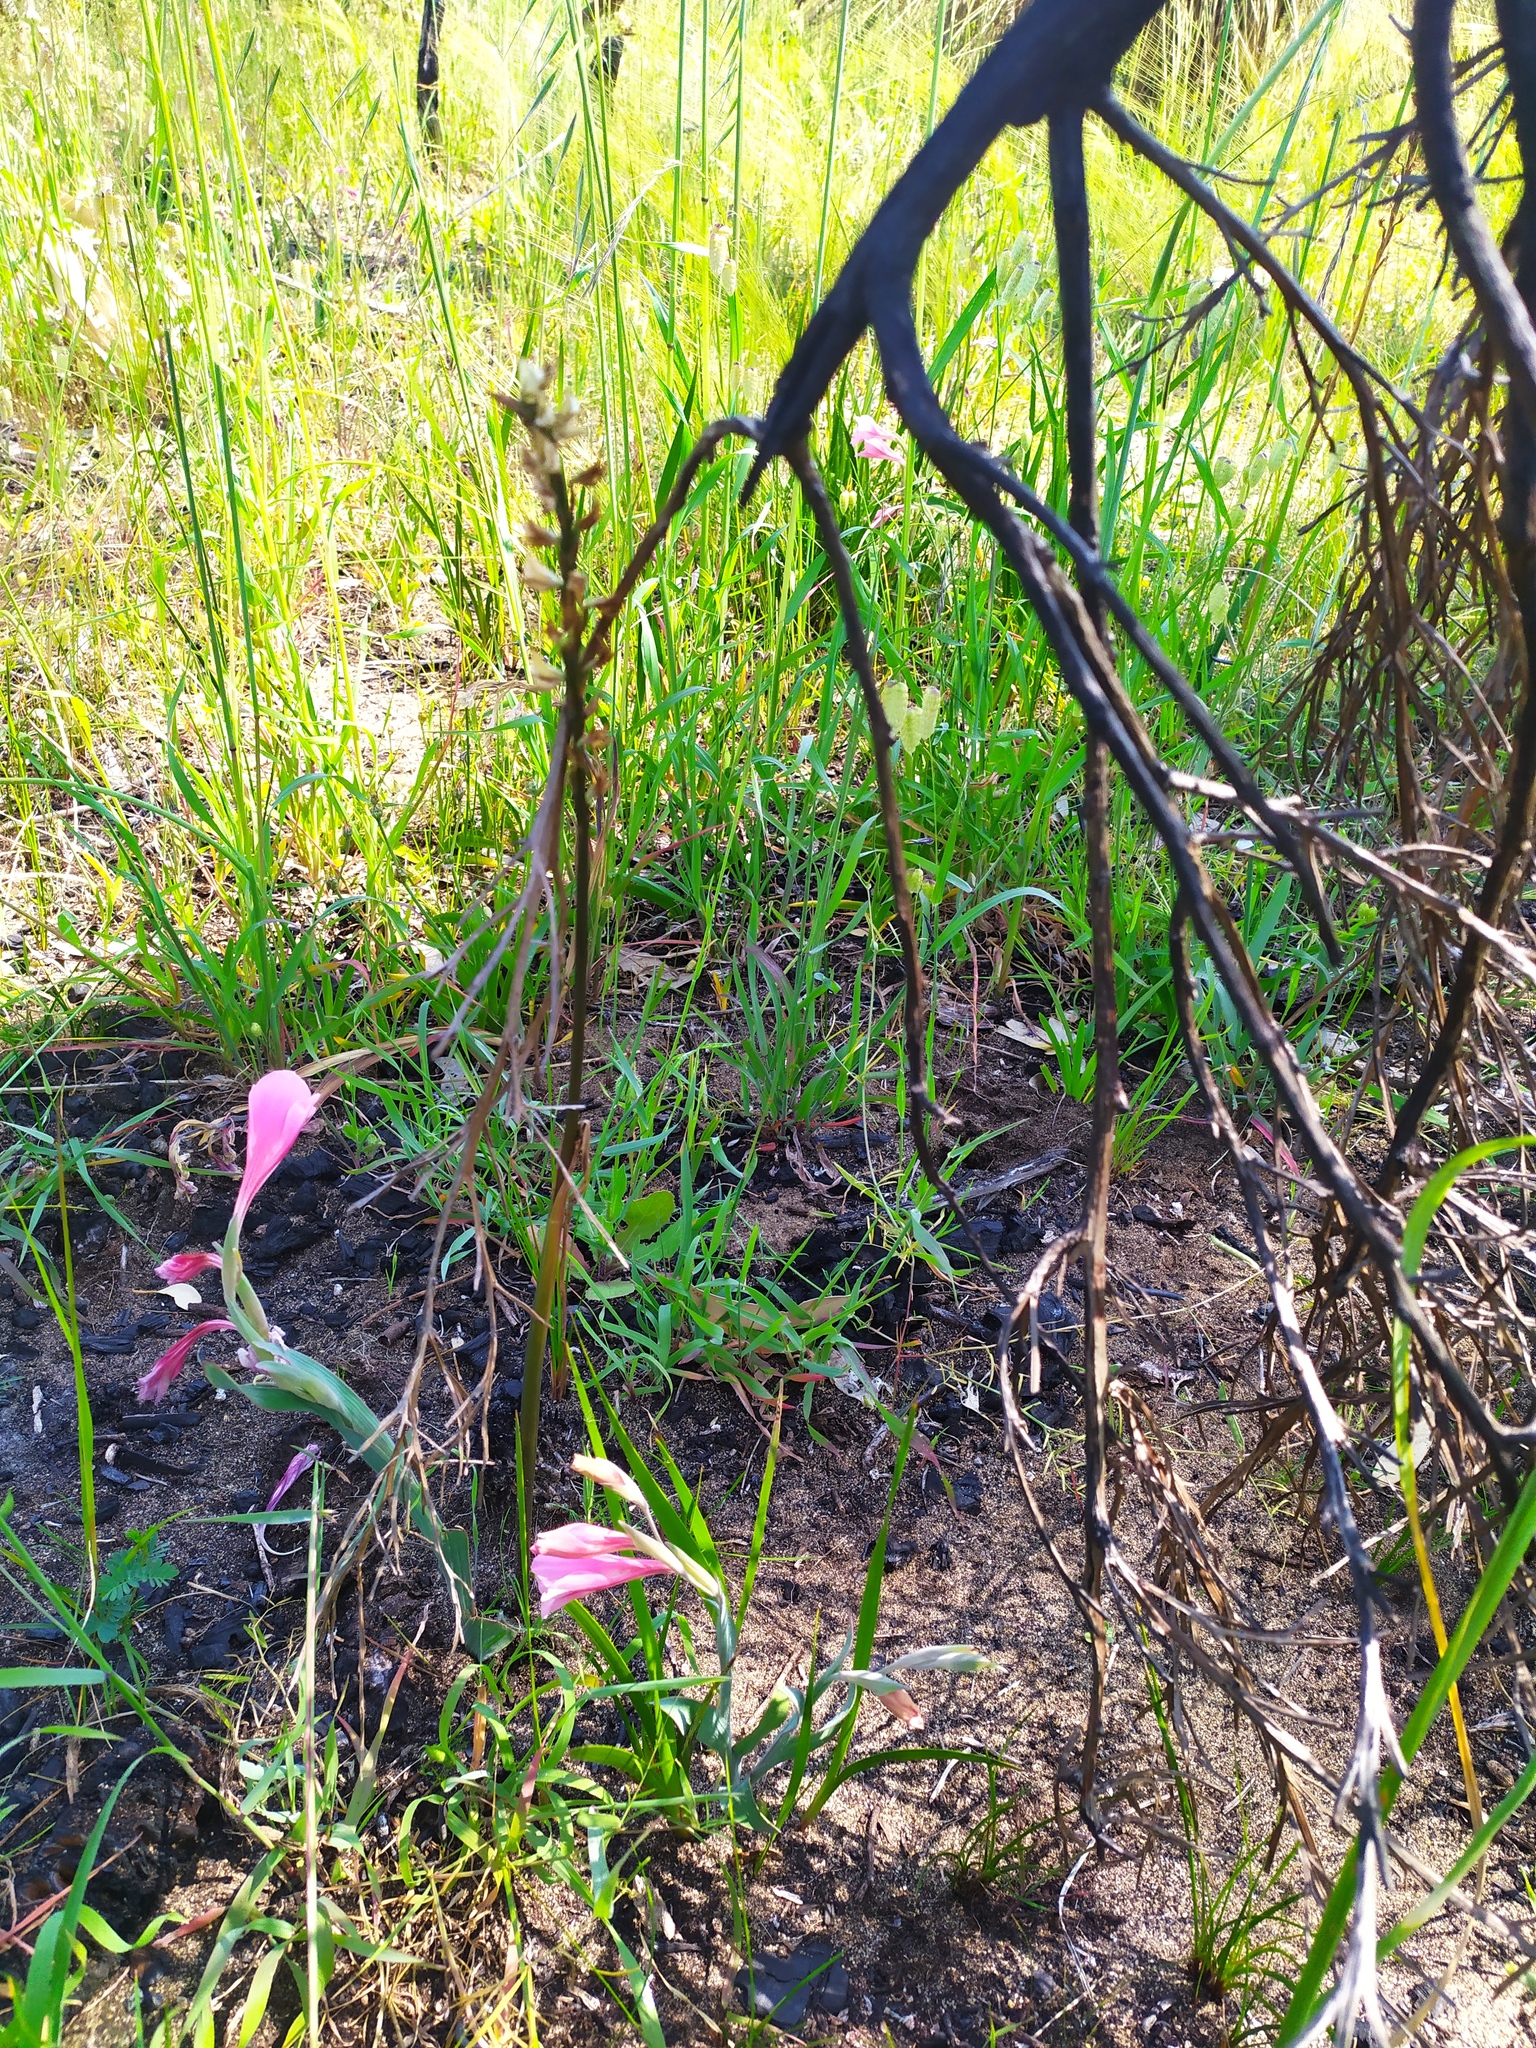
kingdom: Plantae
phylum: Tracheophyta
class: Liliopsida
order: Asparagales
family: Orchidaceae
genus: Prasophyllum
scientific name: Prasophyllum elatum
